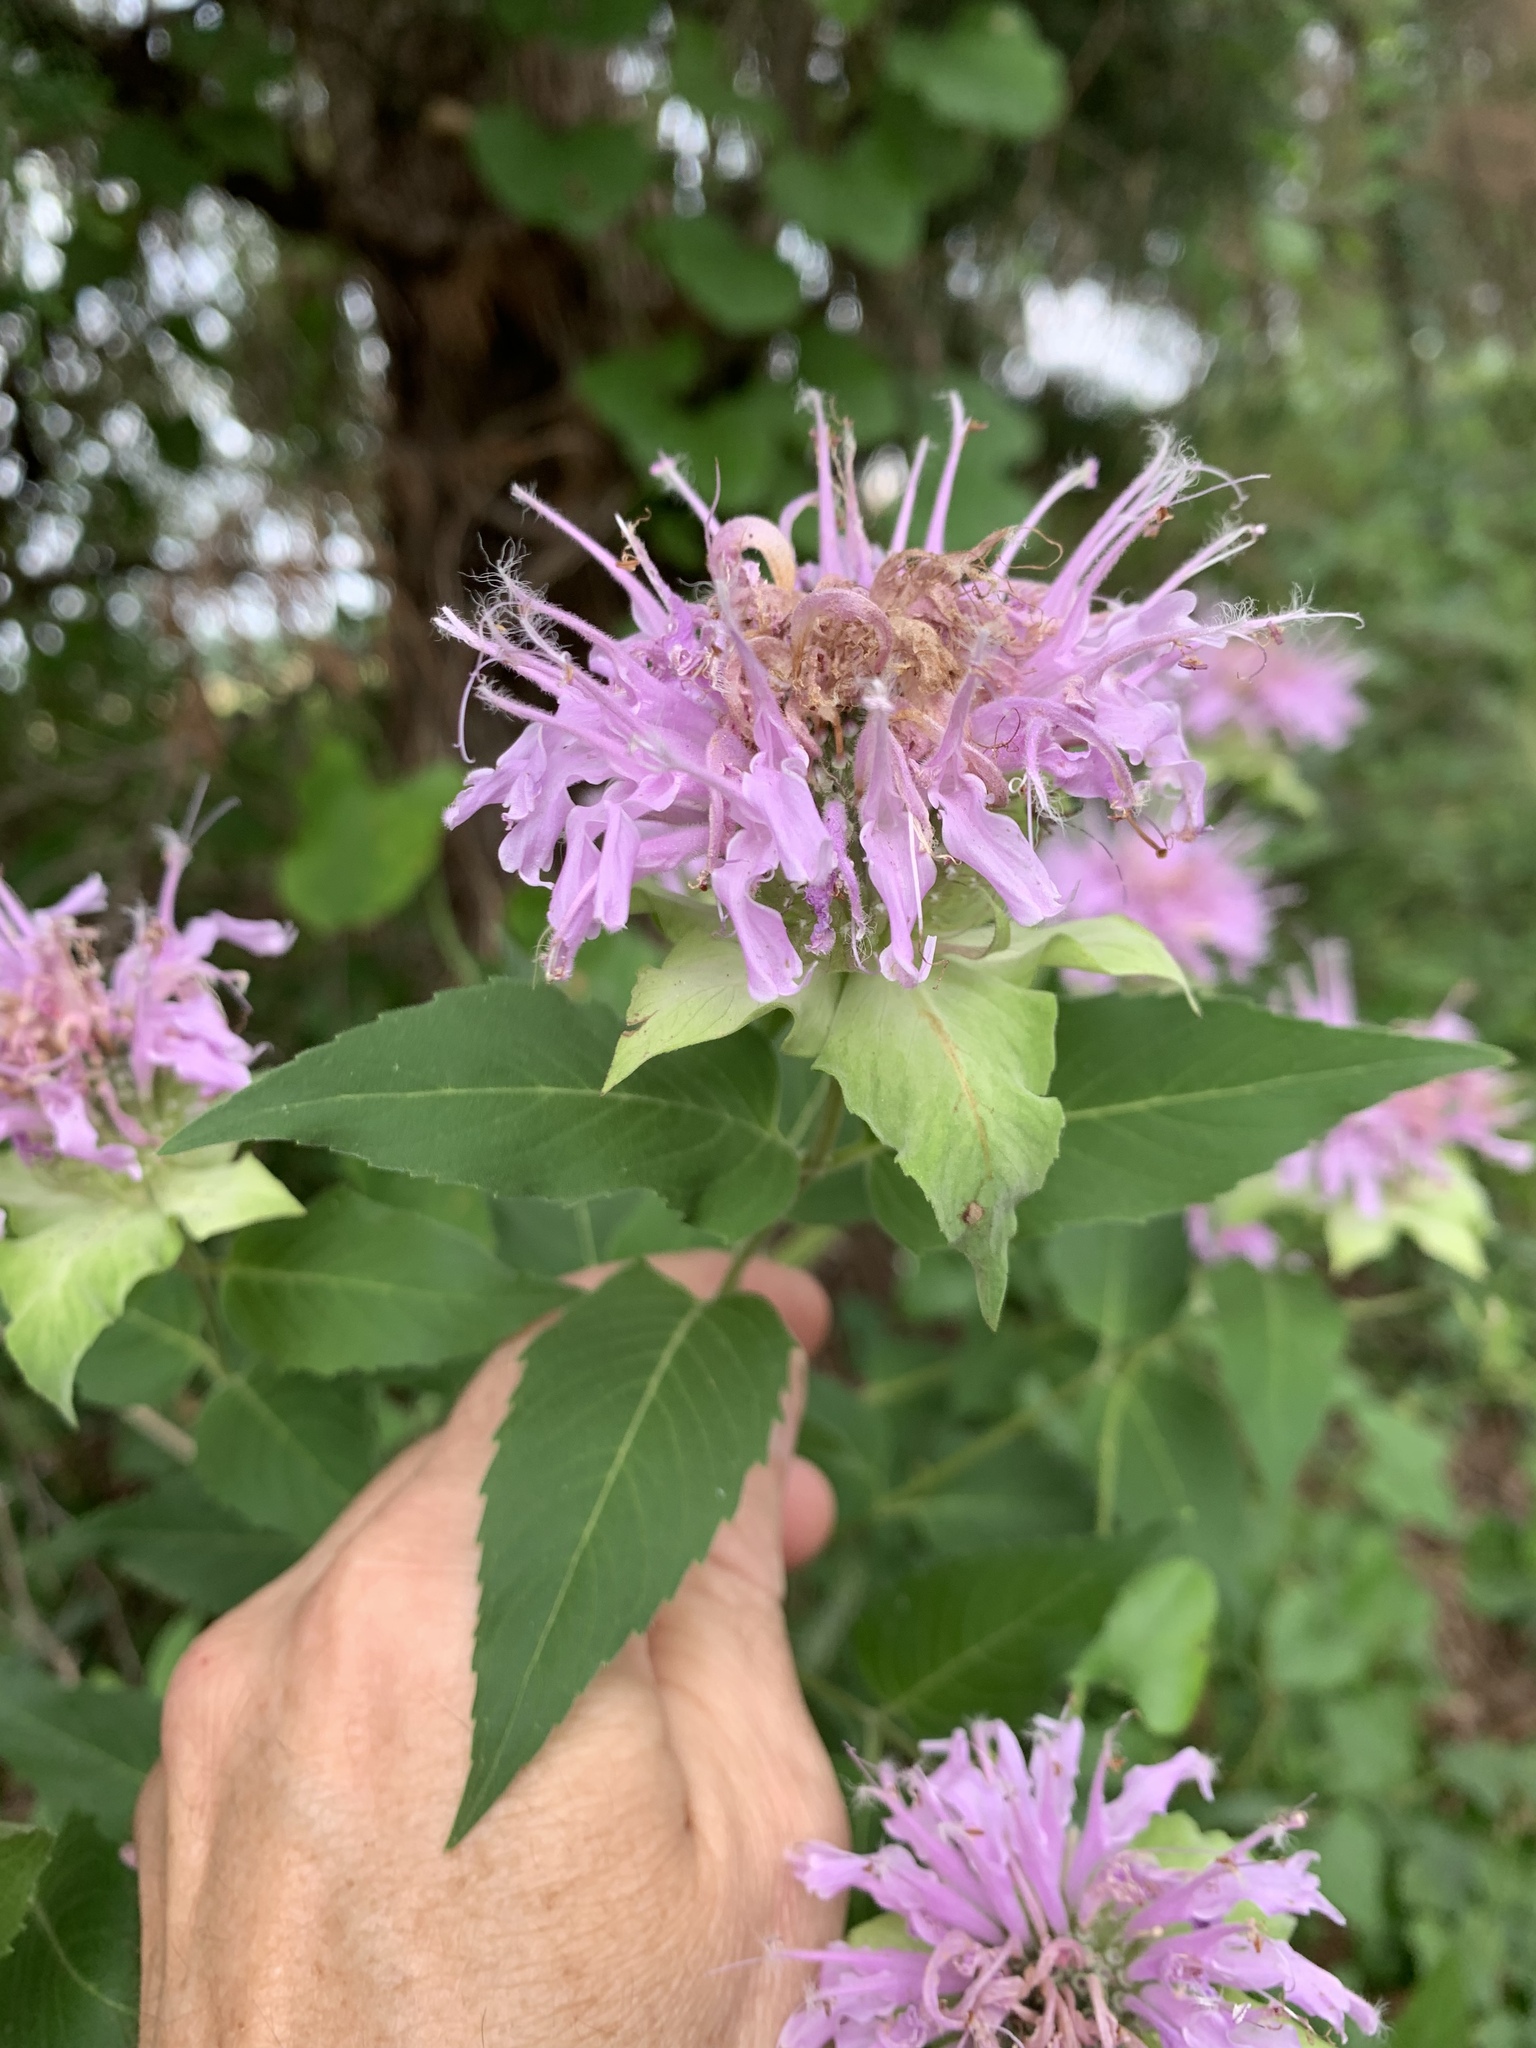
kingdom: Plantae
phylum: Tracheophyta
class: Magnoliopsida
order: Lamiales
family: Lamiaceae
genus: Monarda
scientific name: Monarda fistulosa
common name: Purple beebalm
